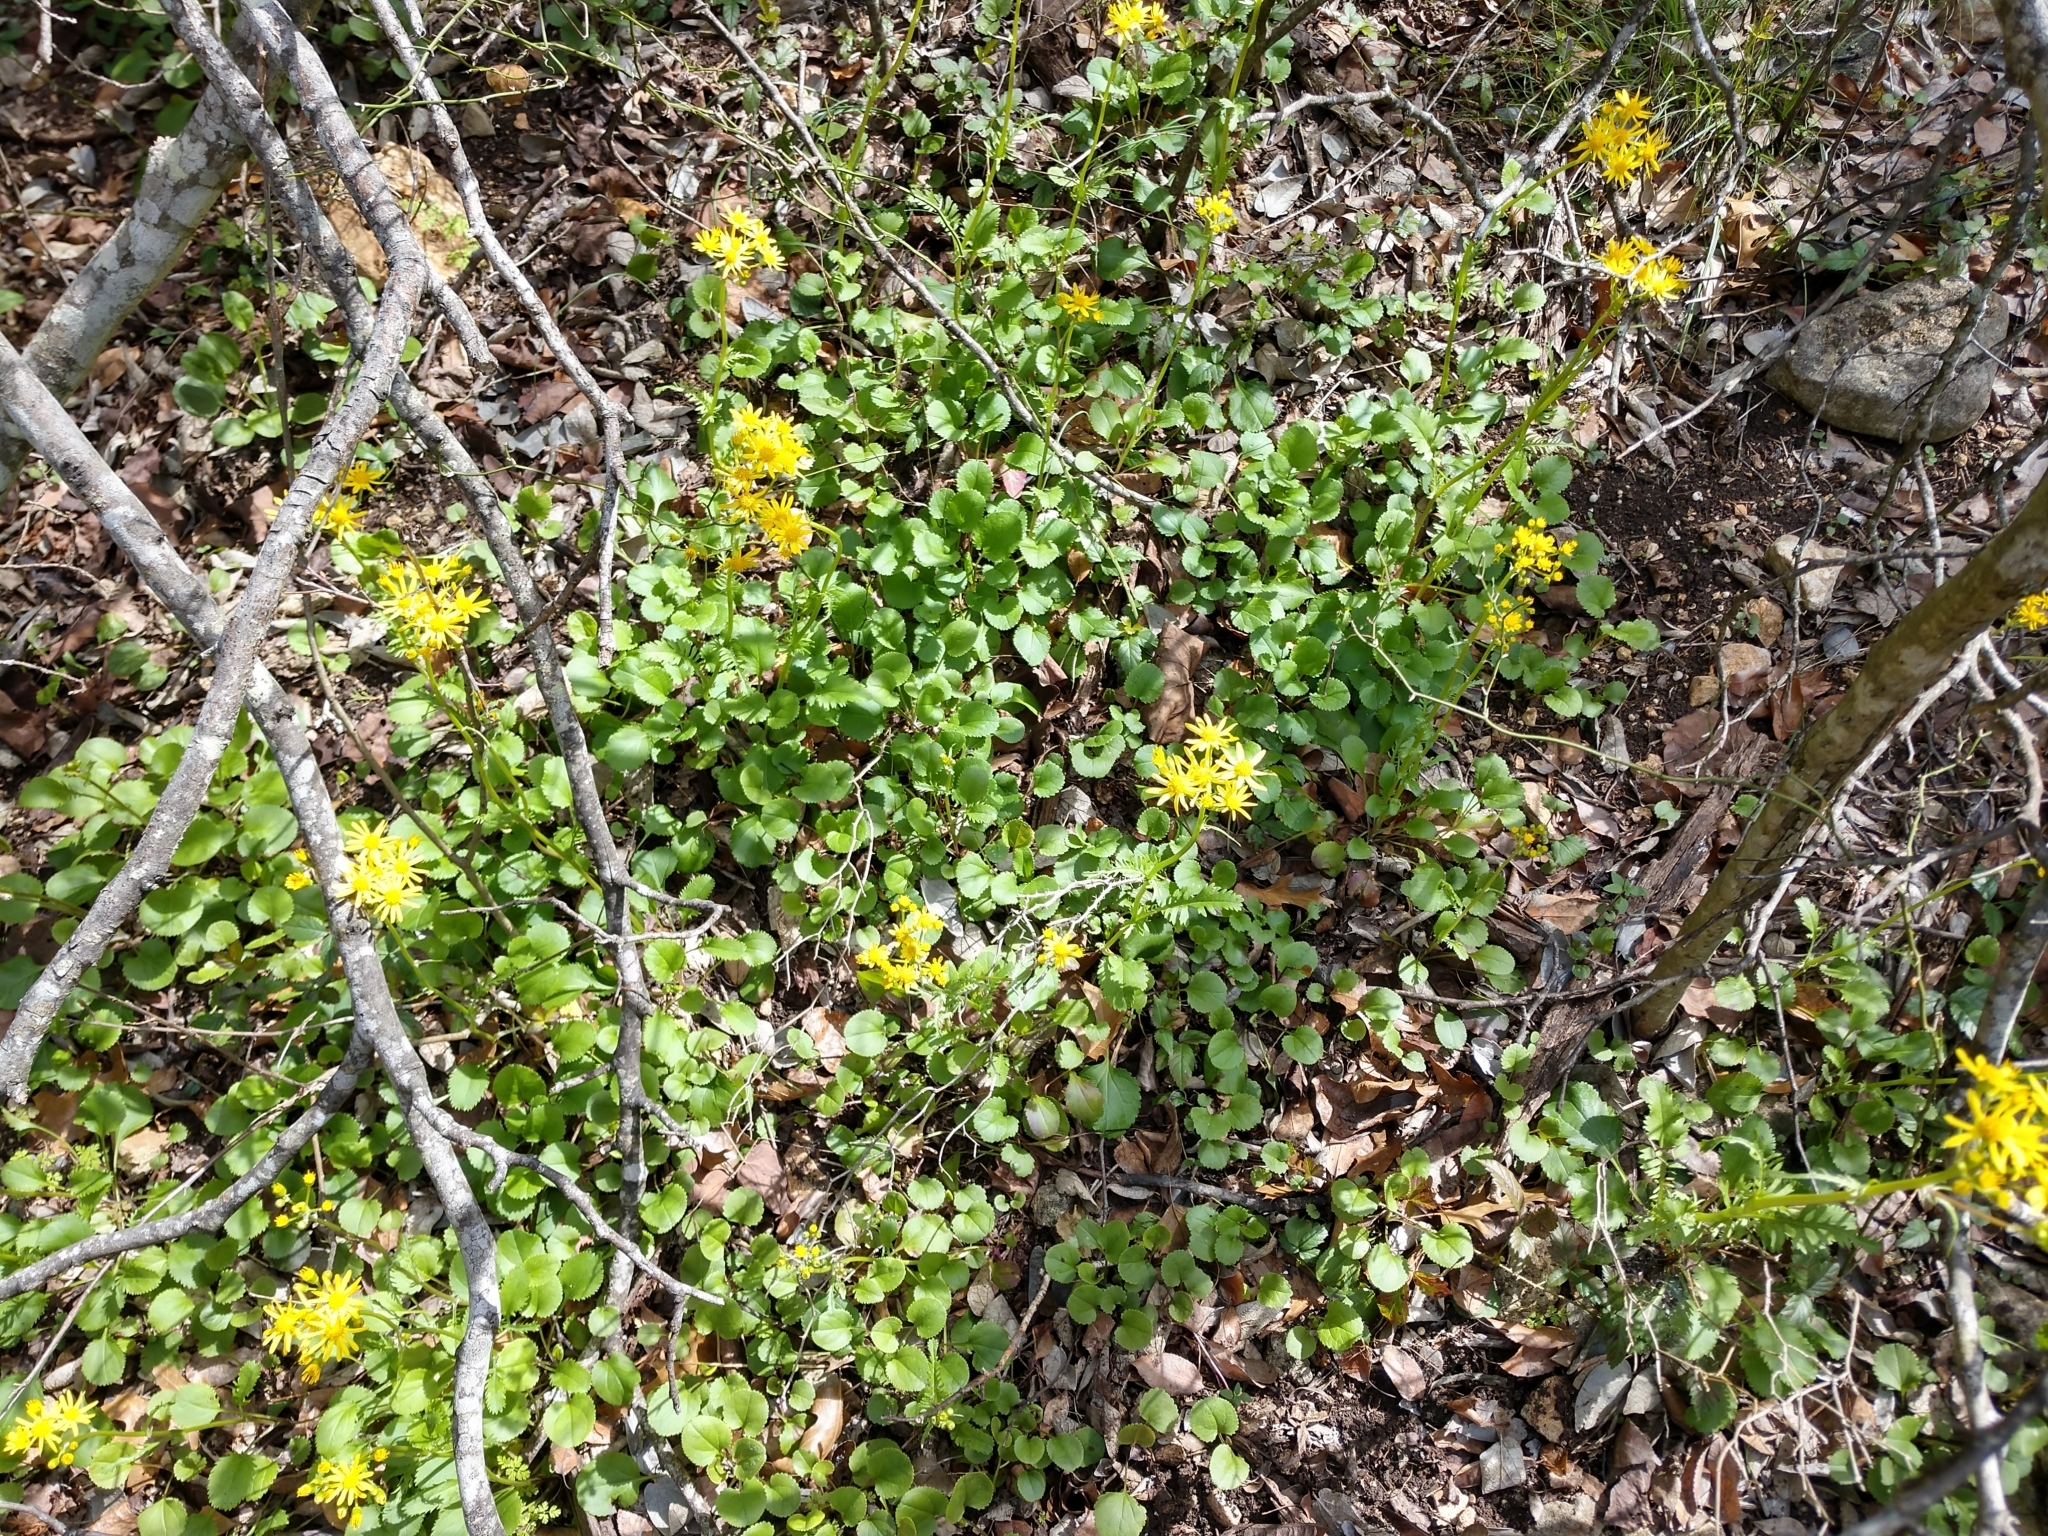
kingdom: Plantae
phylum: Tracheophyta
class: Magnoliopsida
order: Asterales
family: Asteraceae
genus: Packera
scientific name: Packera obovata
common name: Round-leaf ragwort
